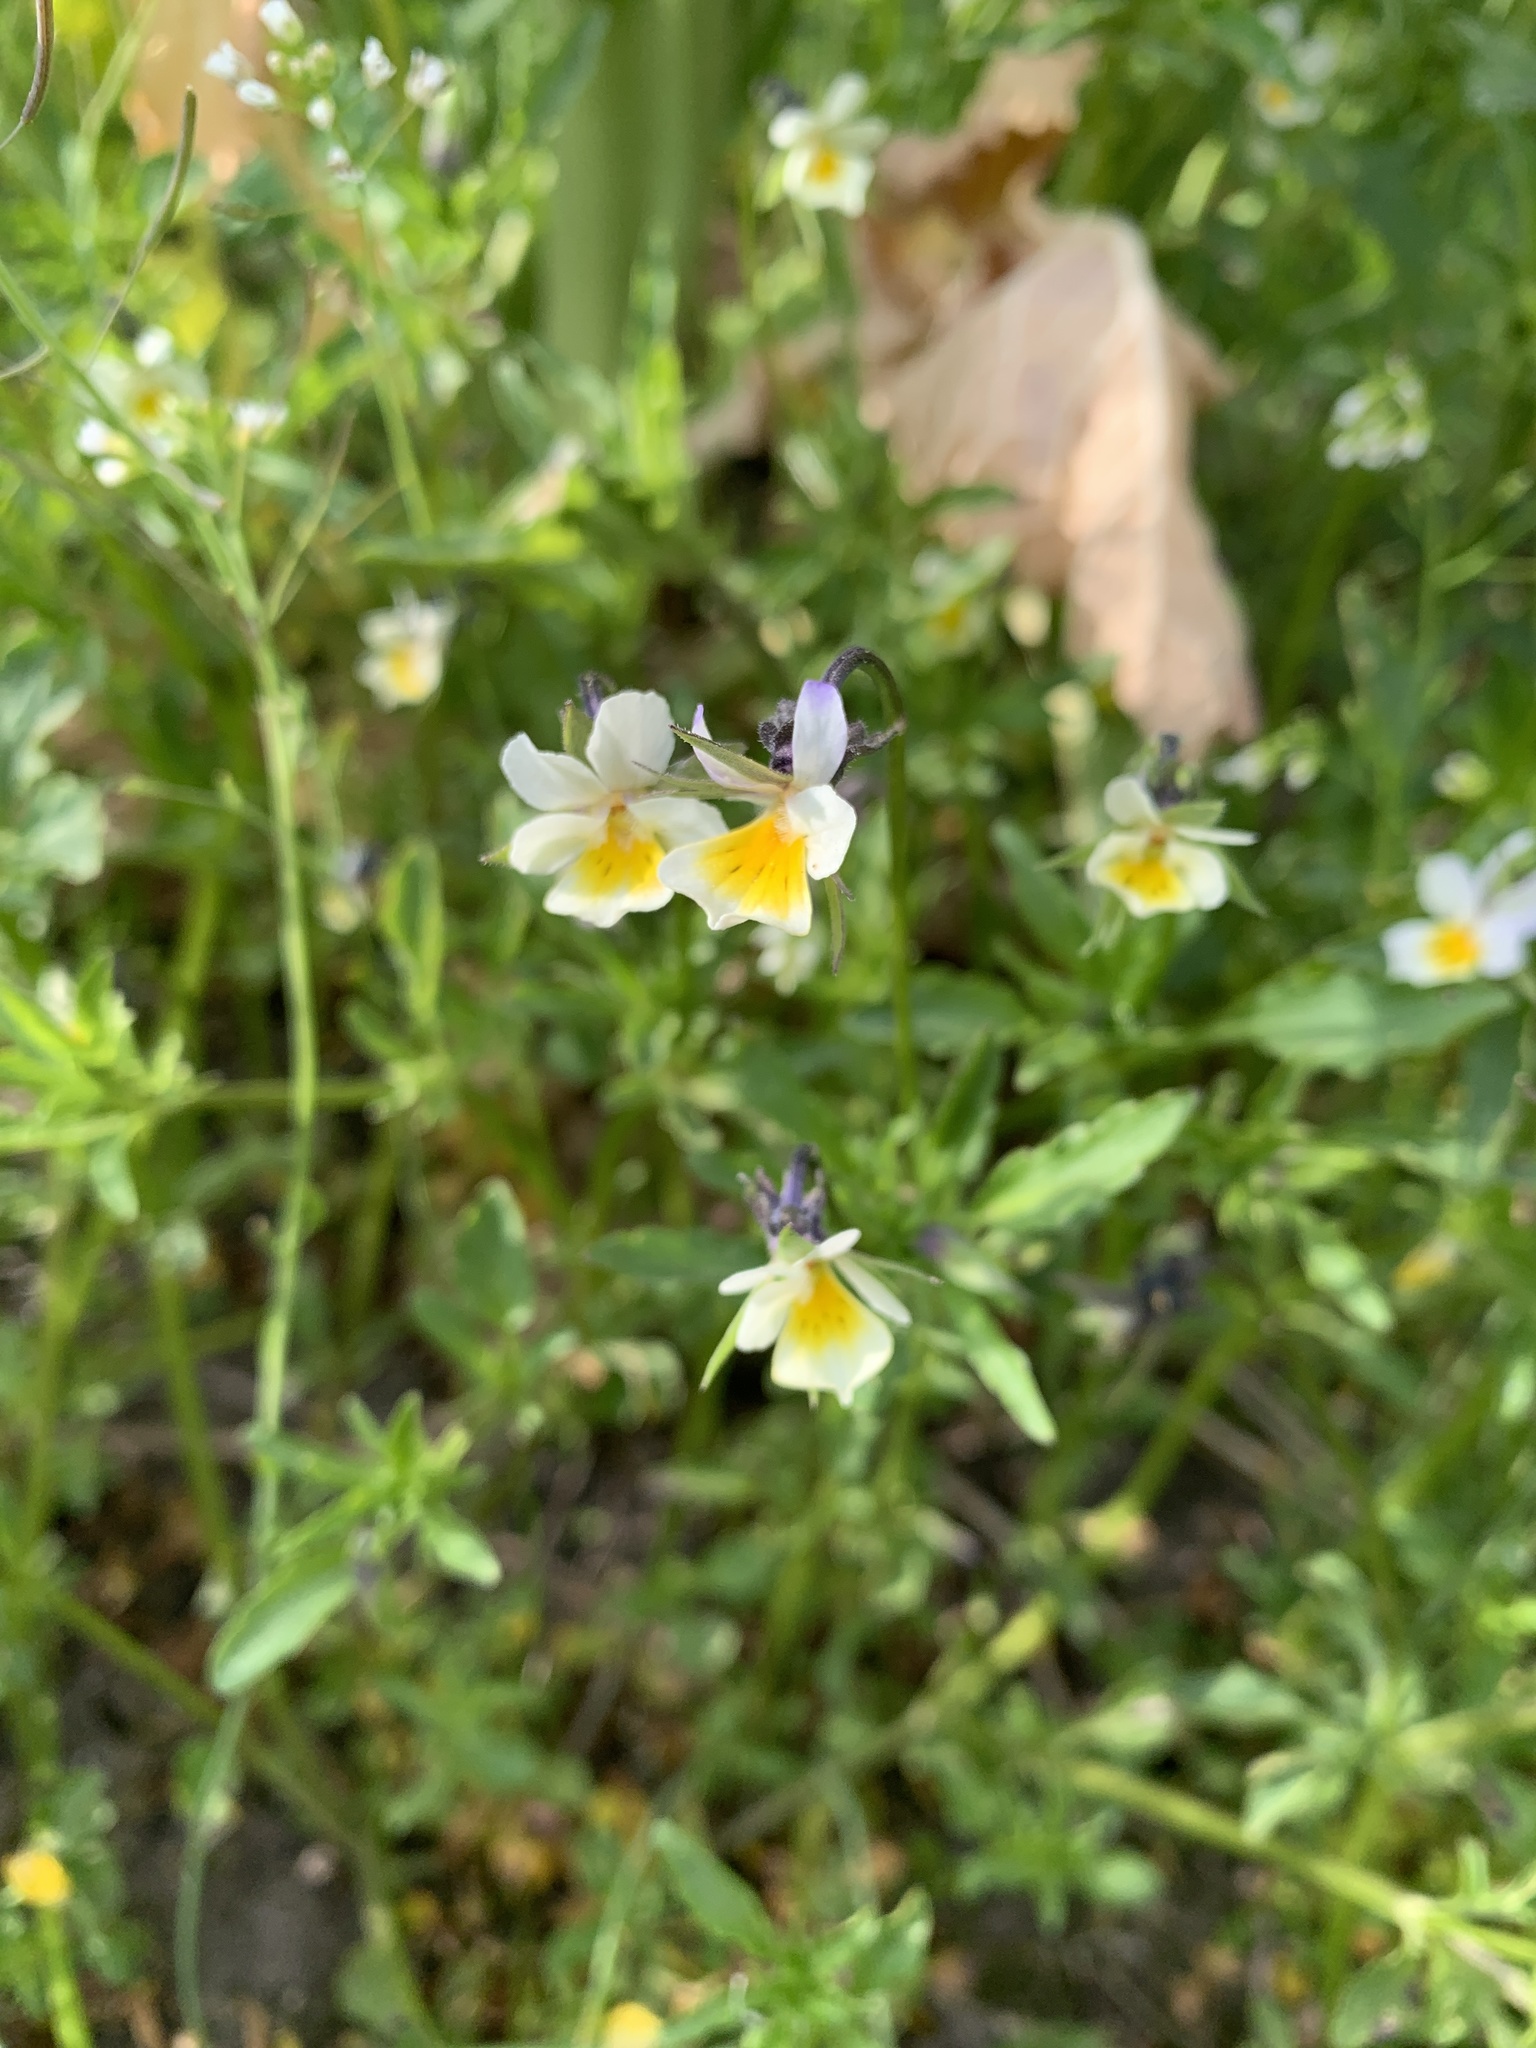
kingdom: Plantae
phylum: Tracheophyta
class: Magnoliopsida
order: Malpighiales
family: Violaceae
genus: Viola
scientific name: Viola arvensis
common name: Field pansy
